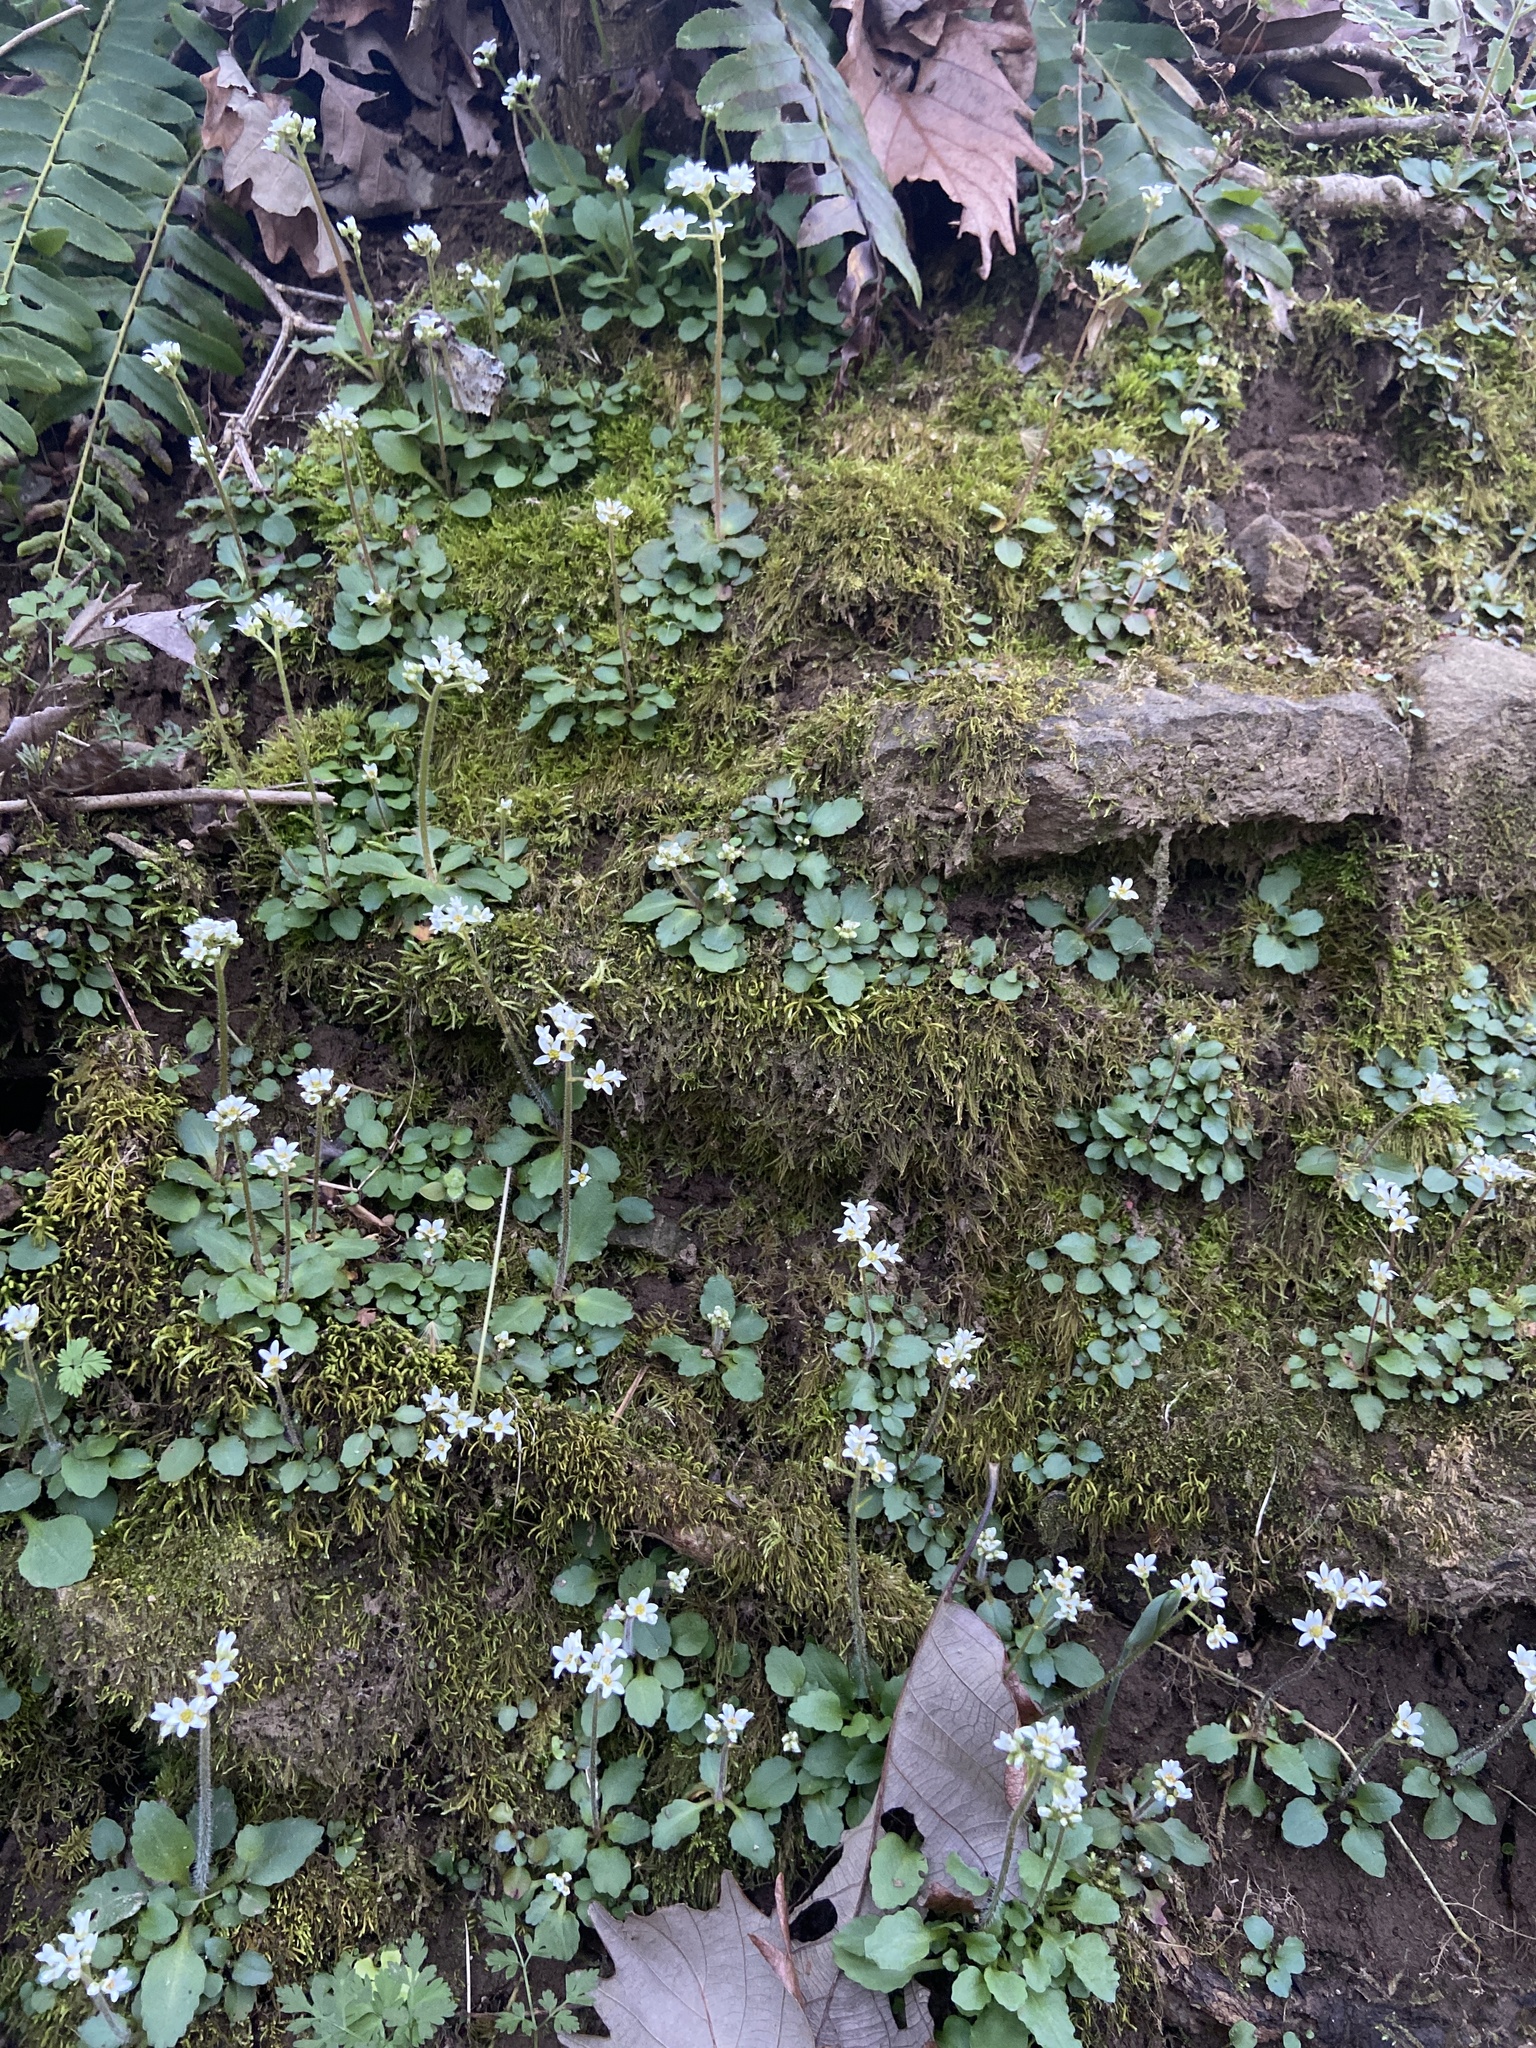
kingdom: Plantae
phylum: Tracheophyta
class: Magnoliopsida
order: Saxifragales
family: Saxifragaceae
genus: Micranthes
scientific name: Micranthes virginiensis
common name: Early saxifrage
